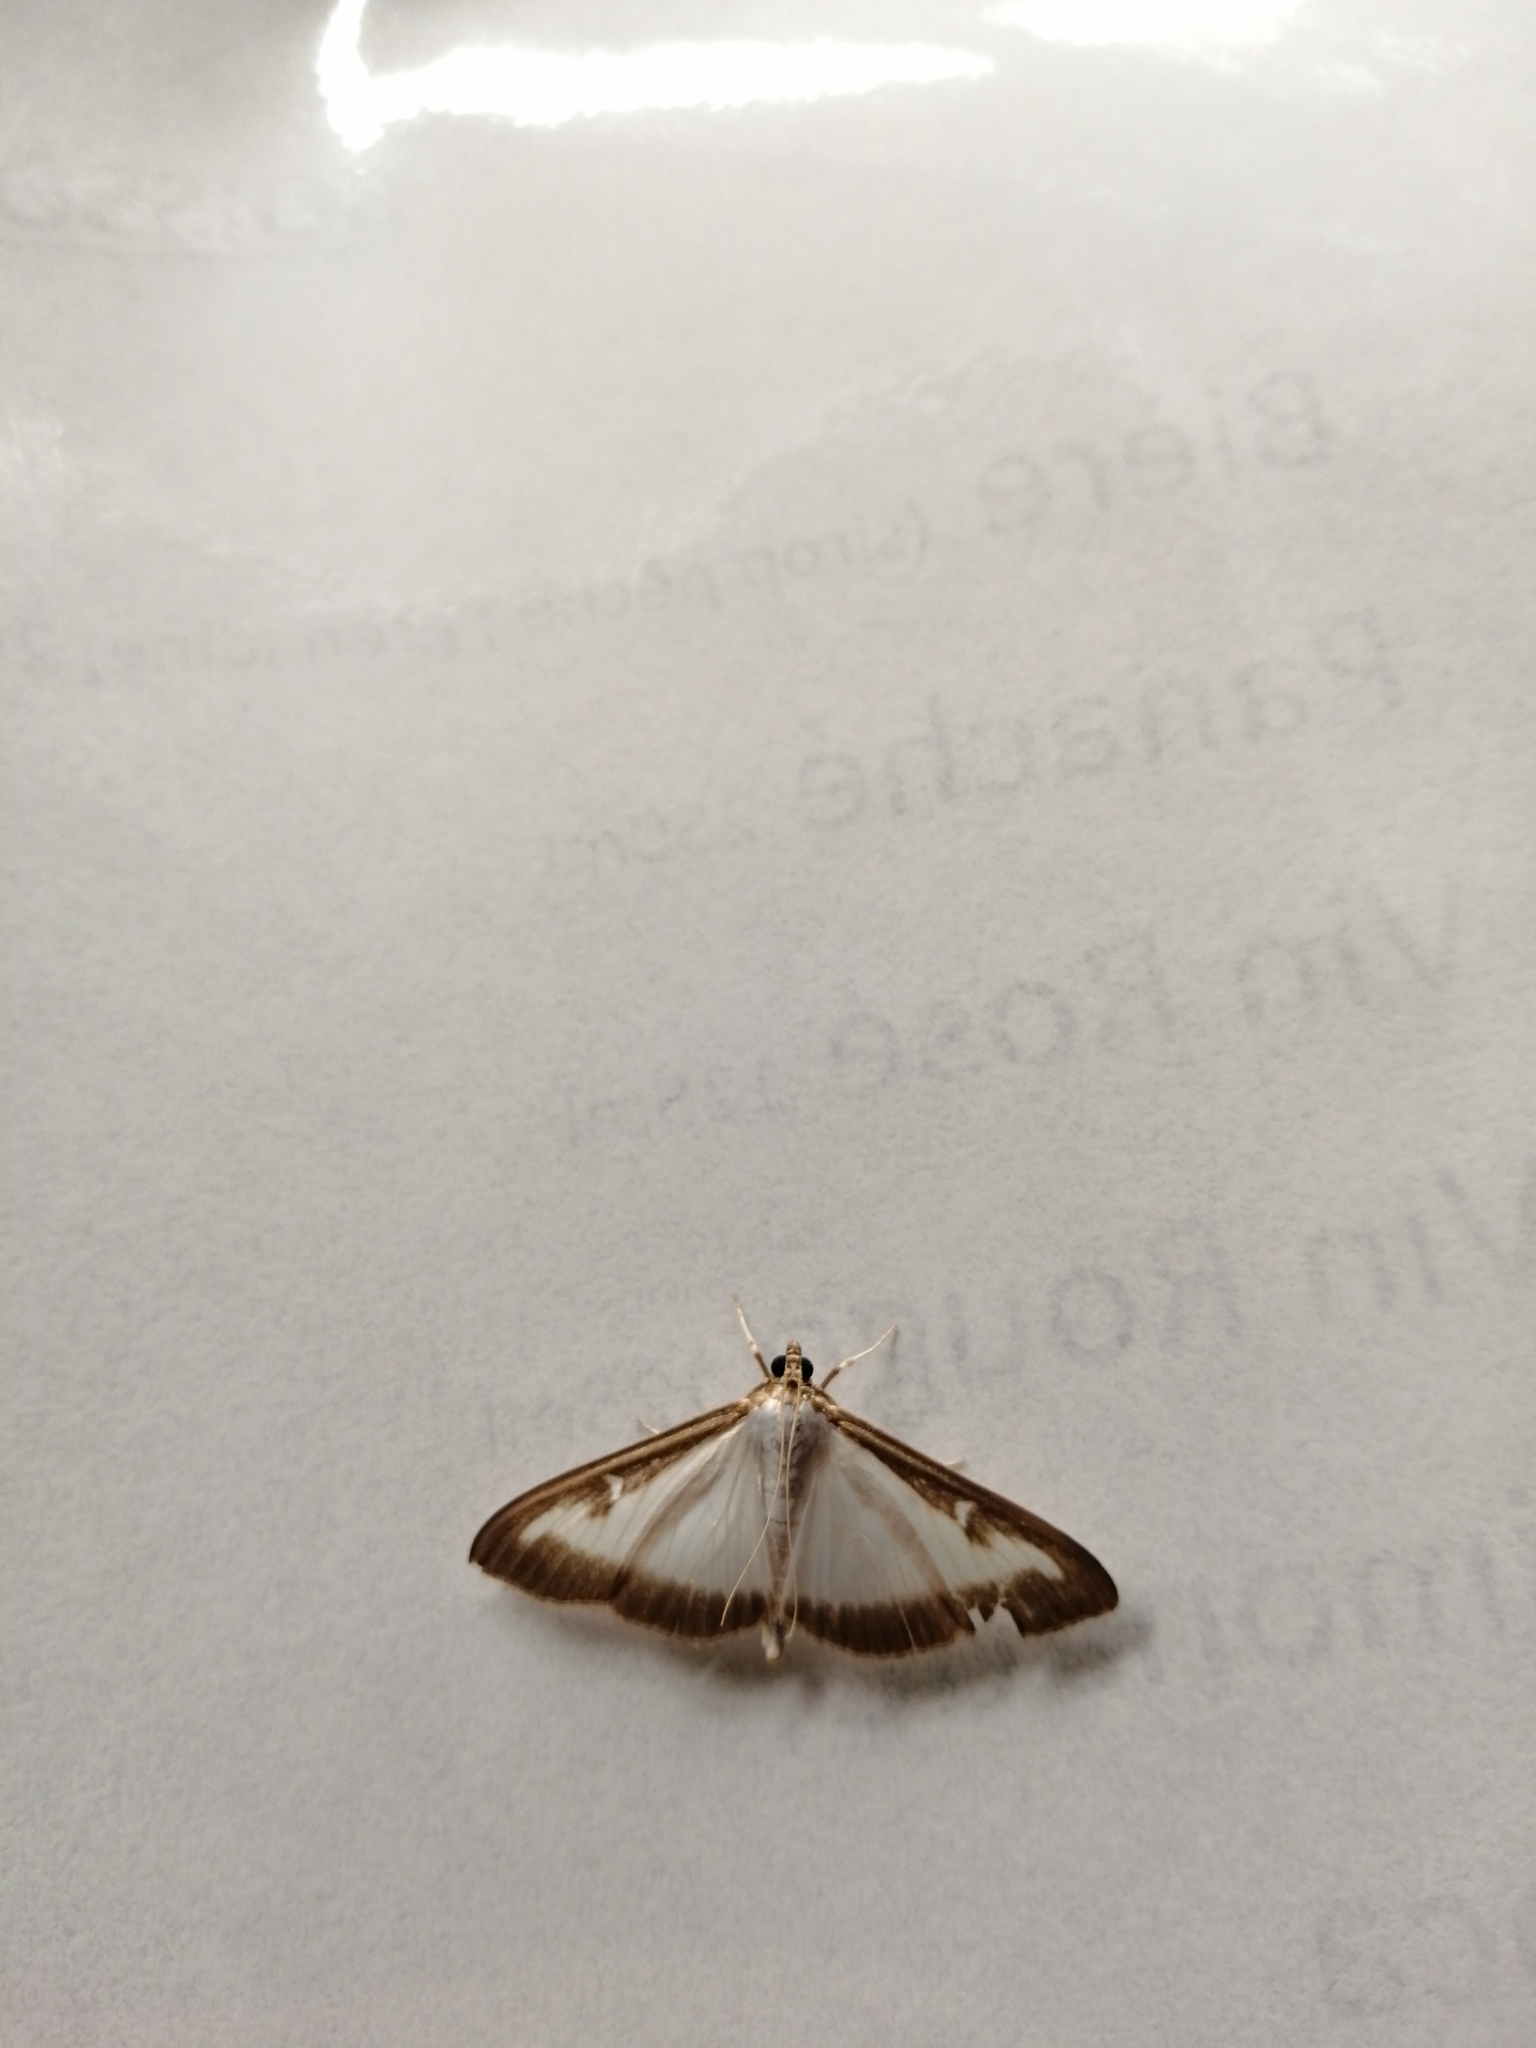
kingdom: Animalia
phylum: Arthropoda
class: Insecta
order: Lepidoptera
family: Crambidae
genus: Cydalima
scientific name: Cydalima perspectalis
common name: Box tree moth
